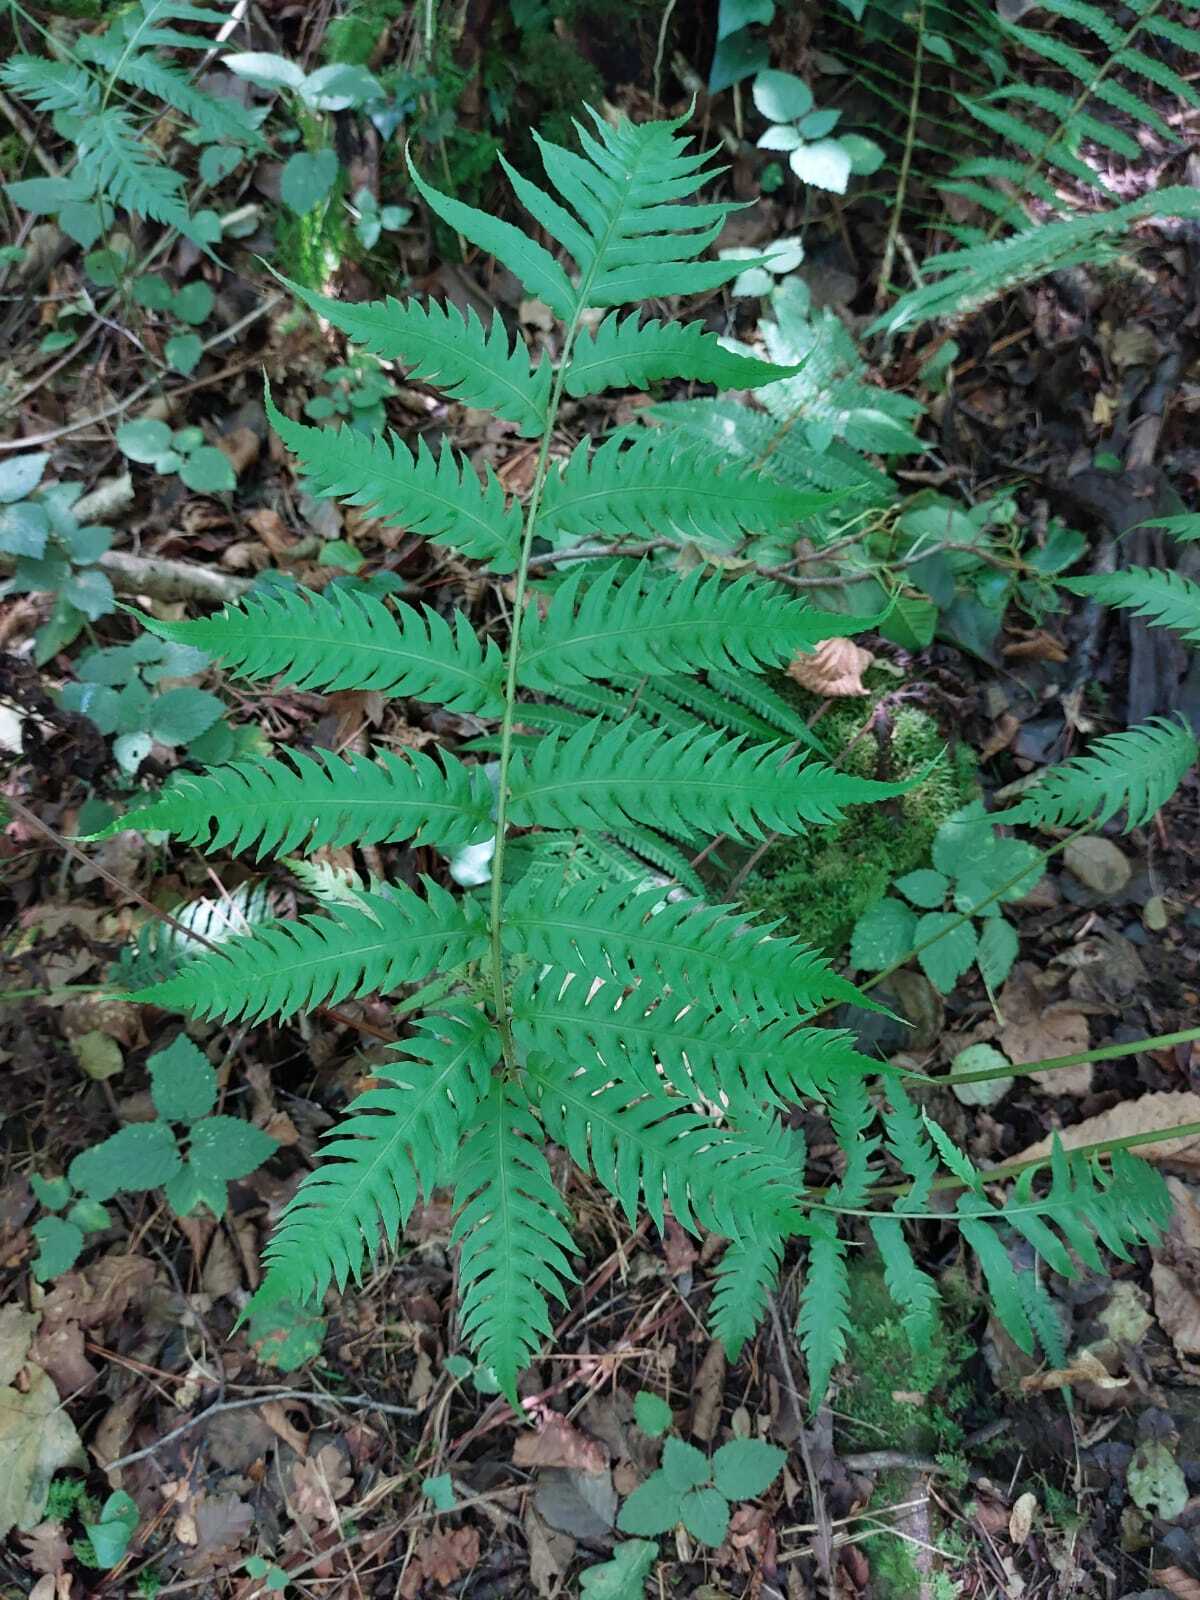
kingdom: Plantae
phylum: Tracheophyta
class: Polypodiopsida
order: Polypodiales
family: Blechnaceae
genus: Woodwardia
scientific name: Woodwardia radicans
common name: Rooting chainfern
